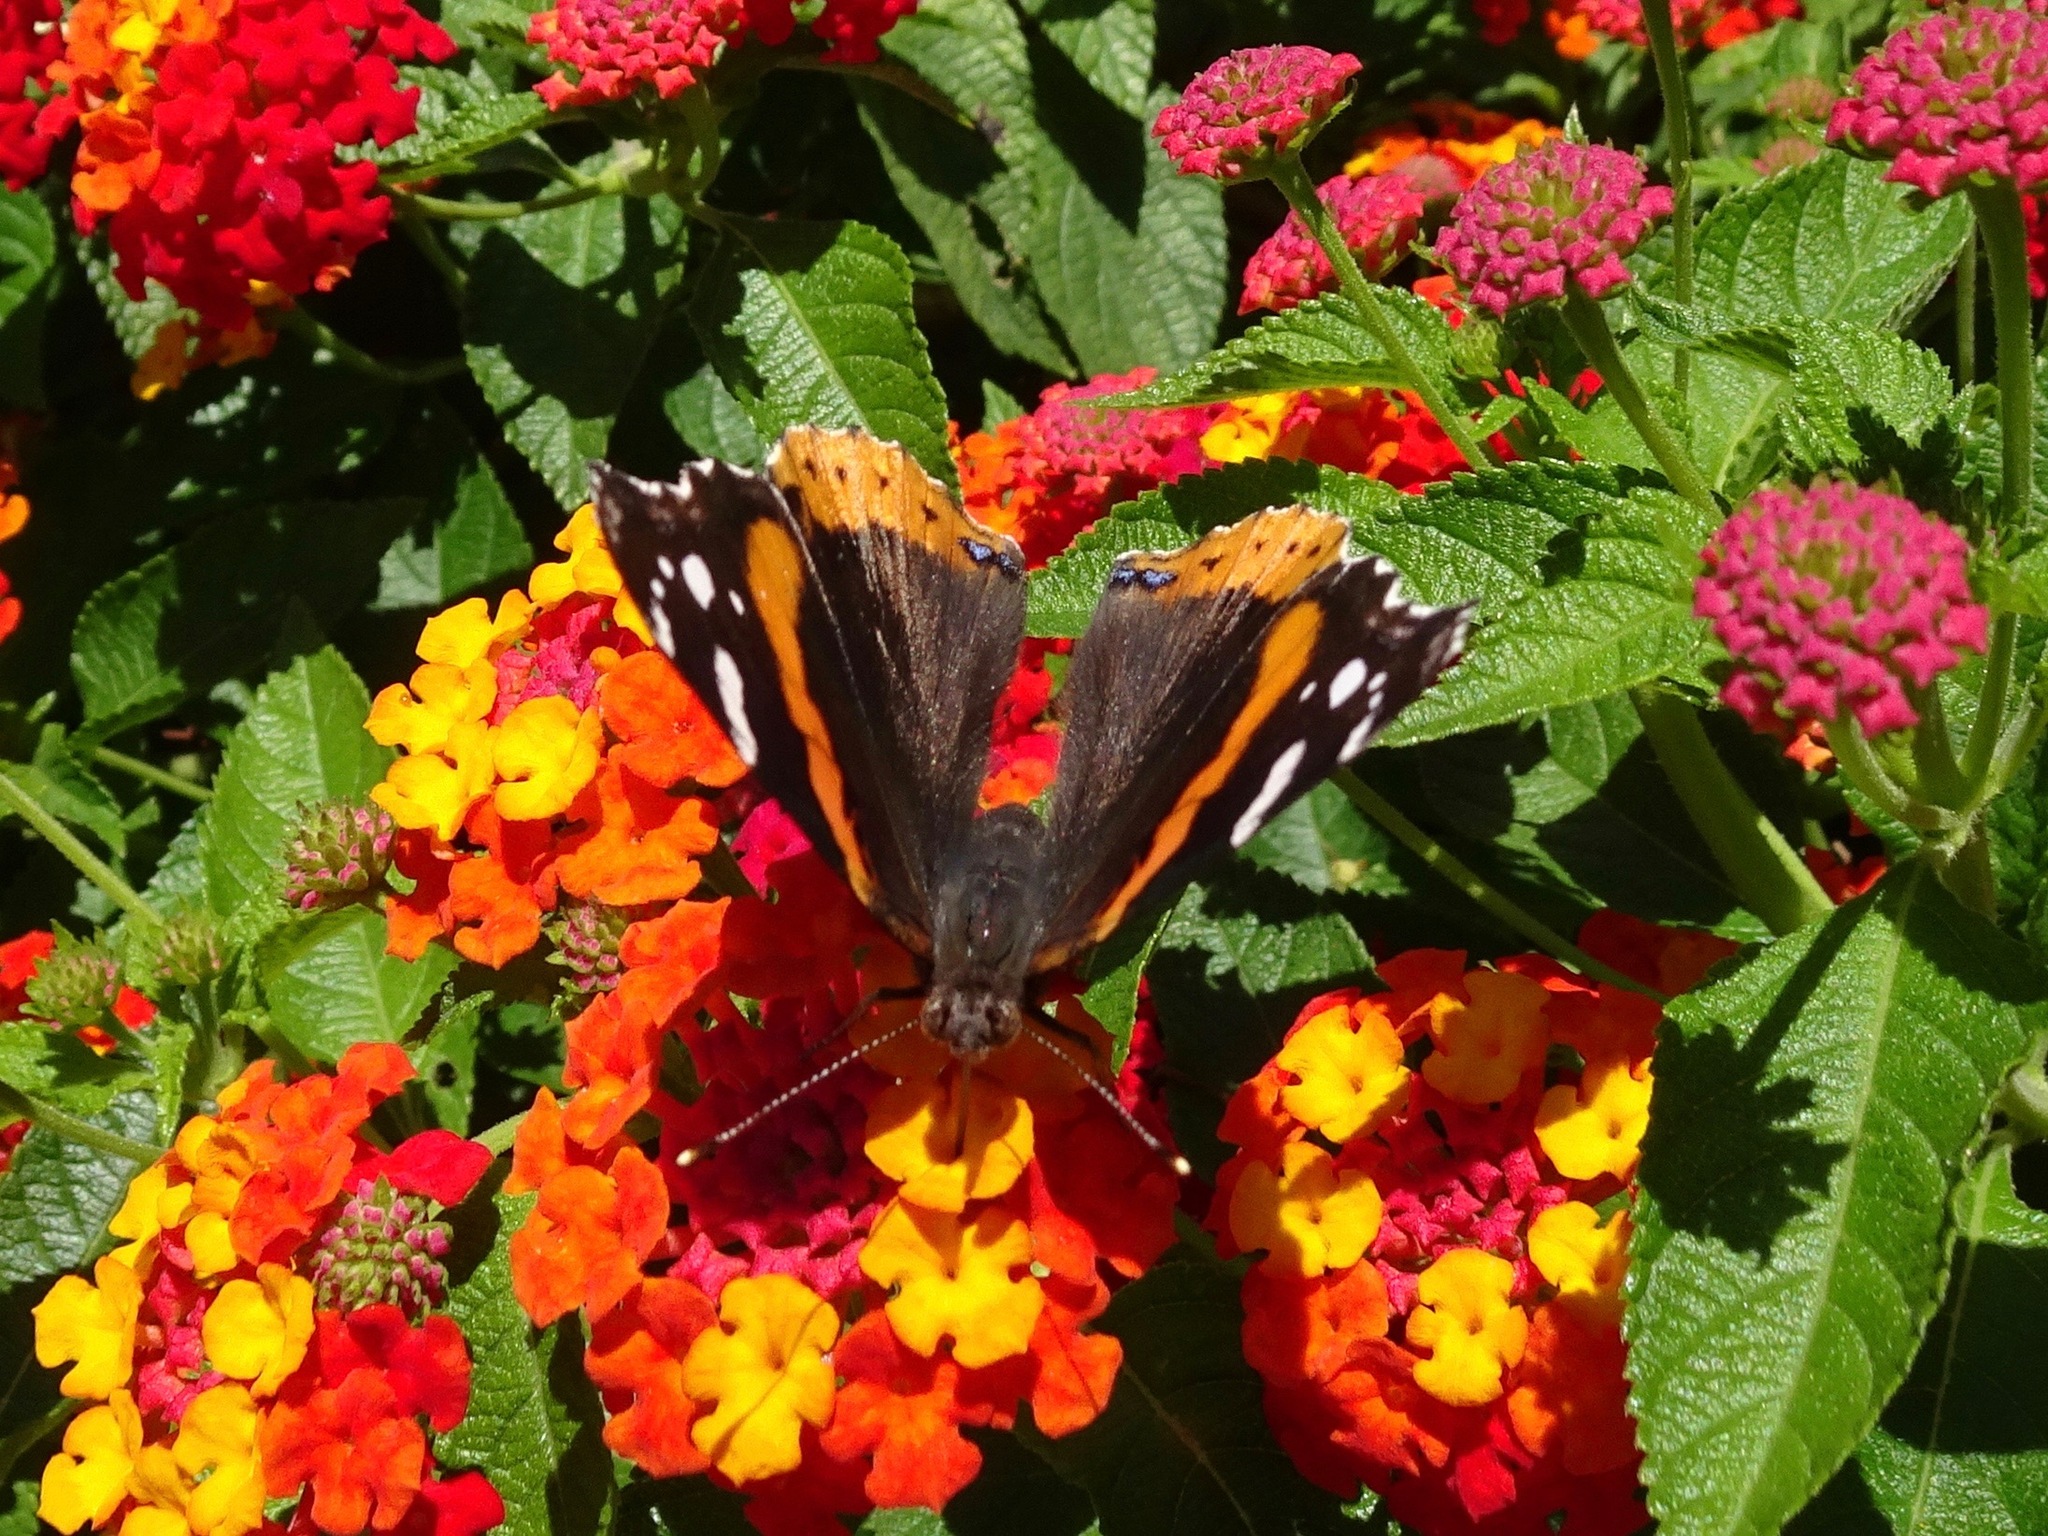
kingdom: Animalia
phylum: Arthropoda
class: Insecta
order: Lepidoptera
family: Nymphalidae
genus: Vanessa
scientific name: Vanessa atalanta
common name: Red admiral
